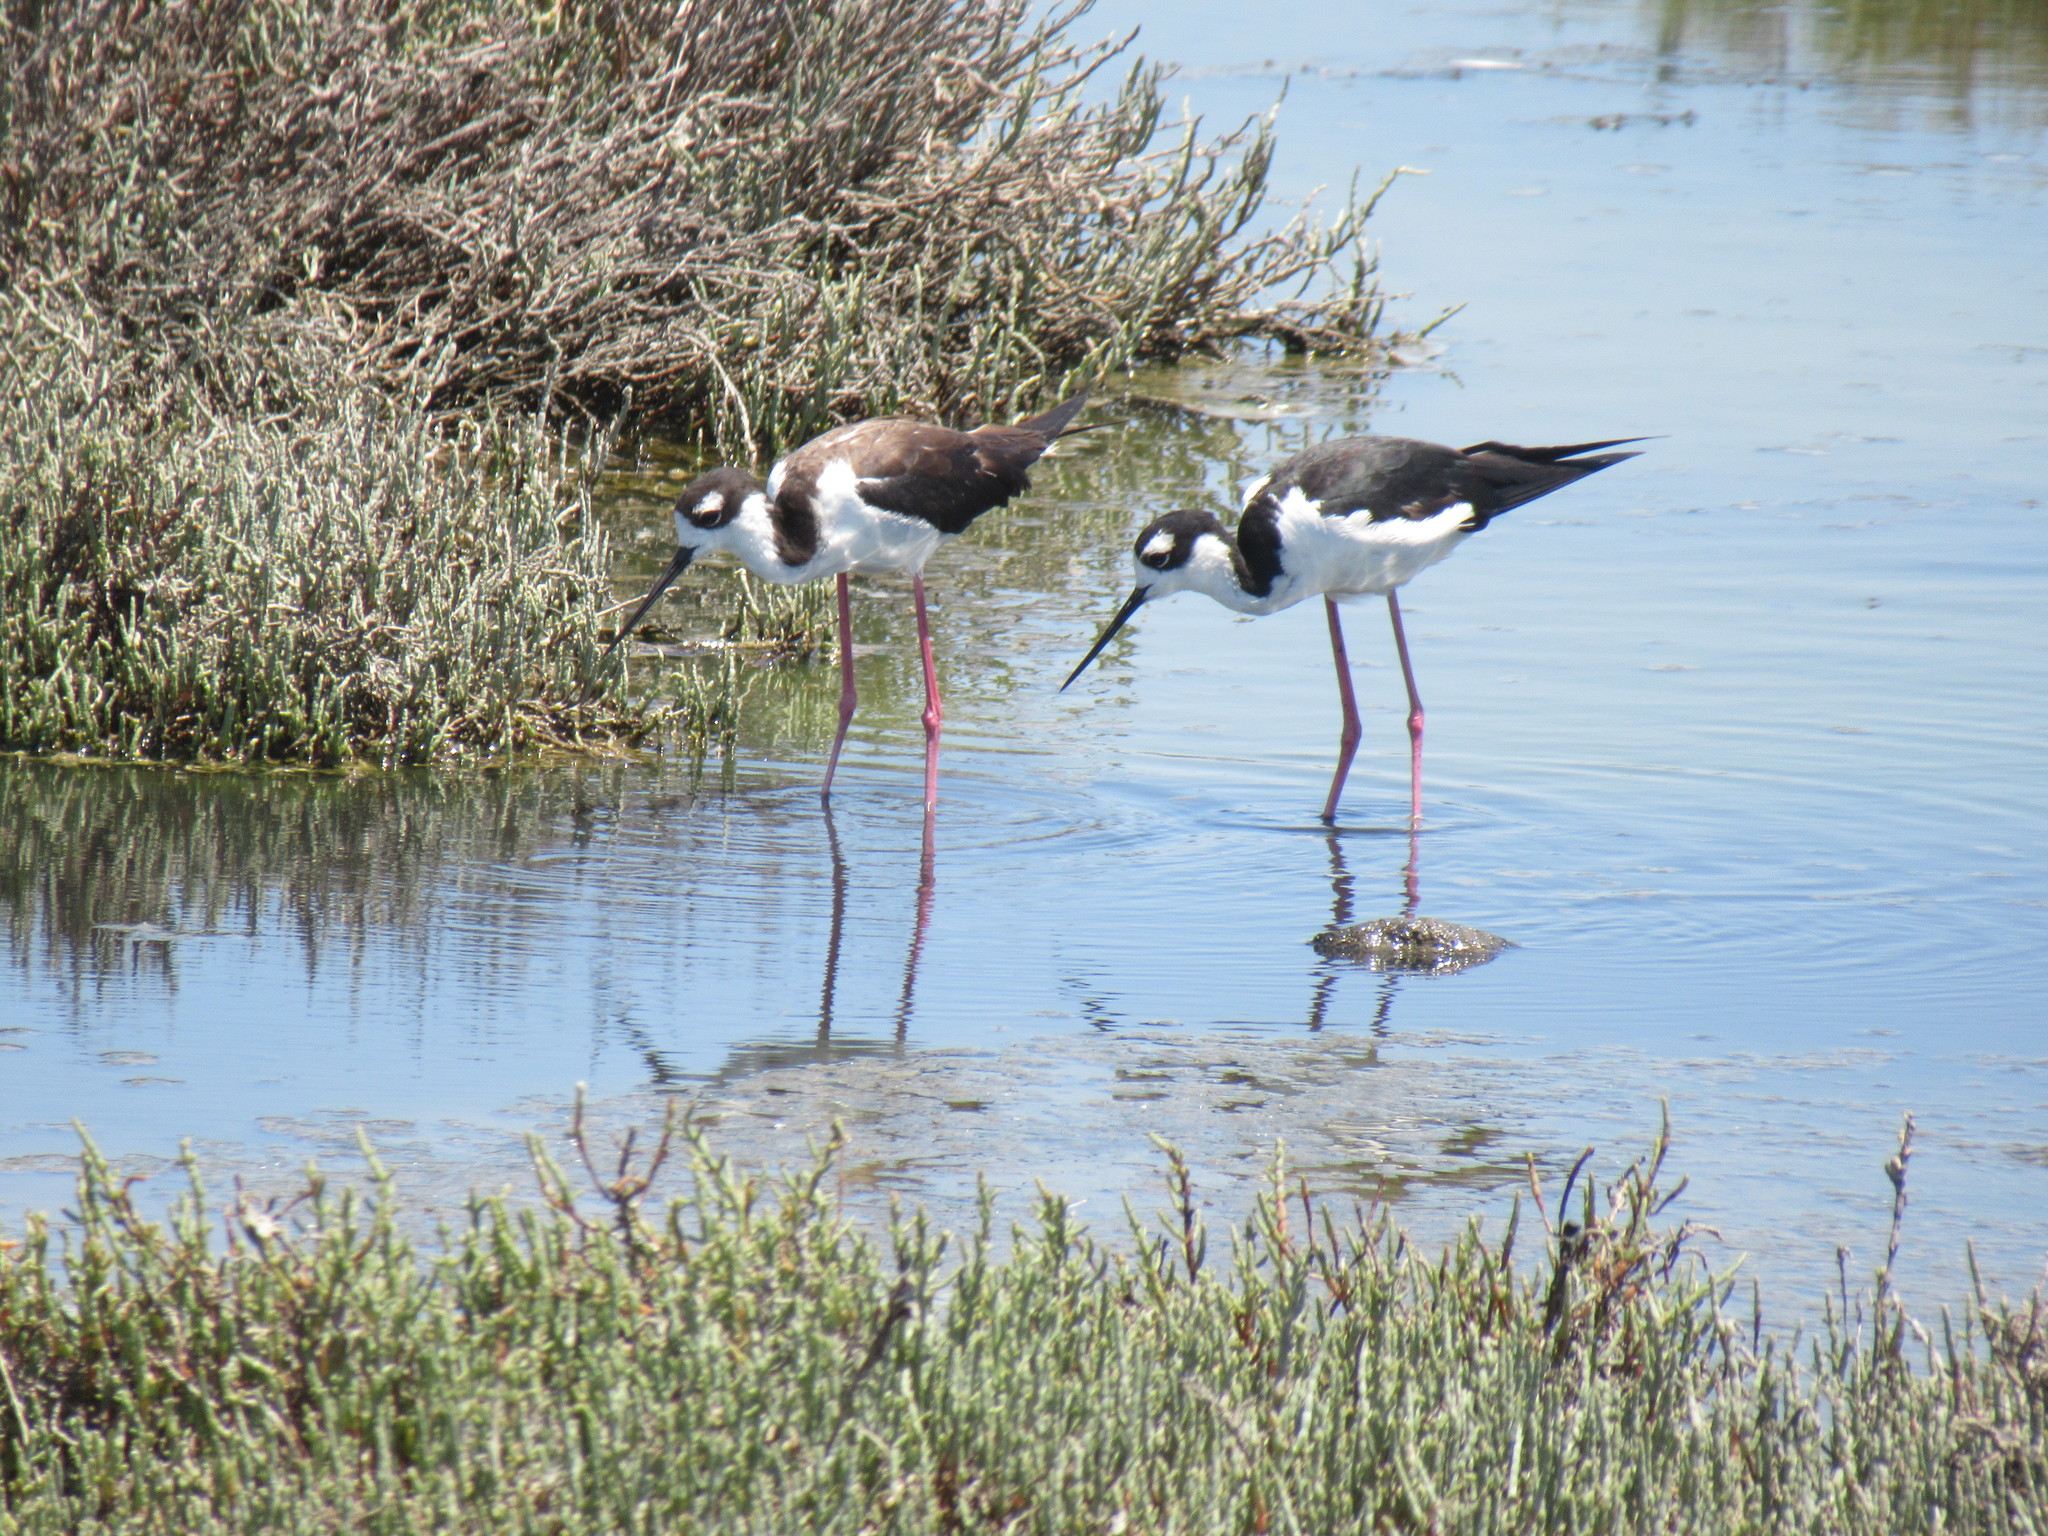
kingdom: Animalia
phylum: Chordata
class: Aves
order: Charadriiformes
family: Recurvirostridae
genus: Himantopus
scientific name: Himantopus mexicanus
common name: Black-necked stilt
